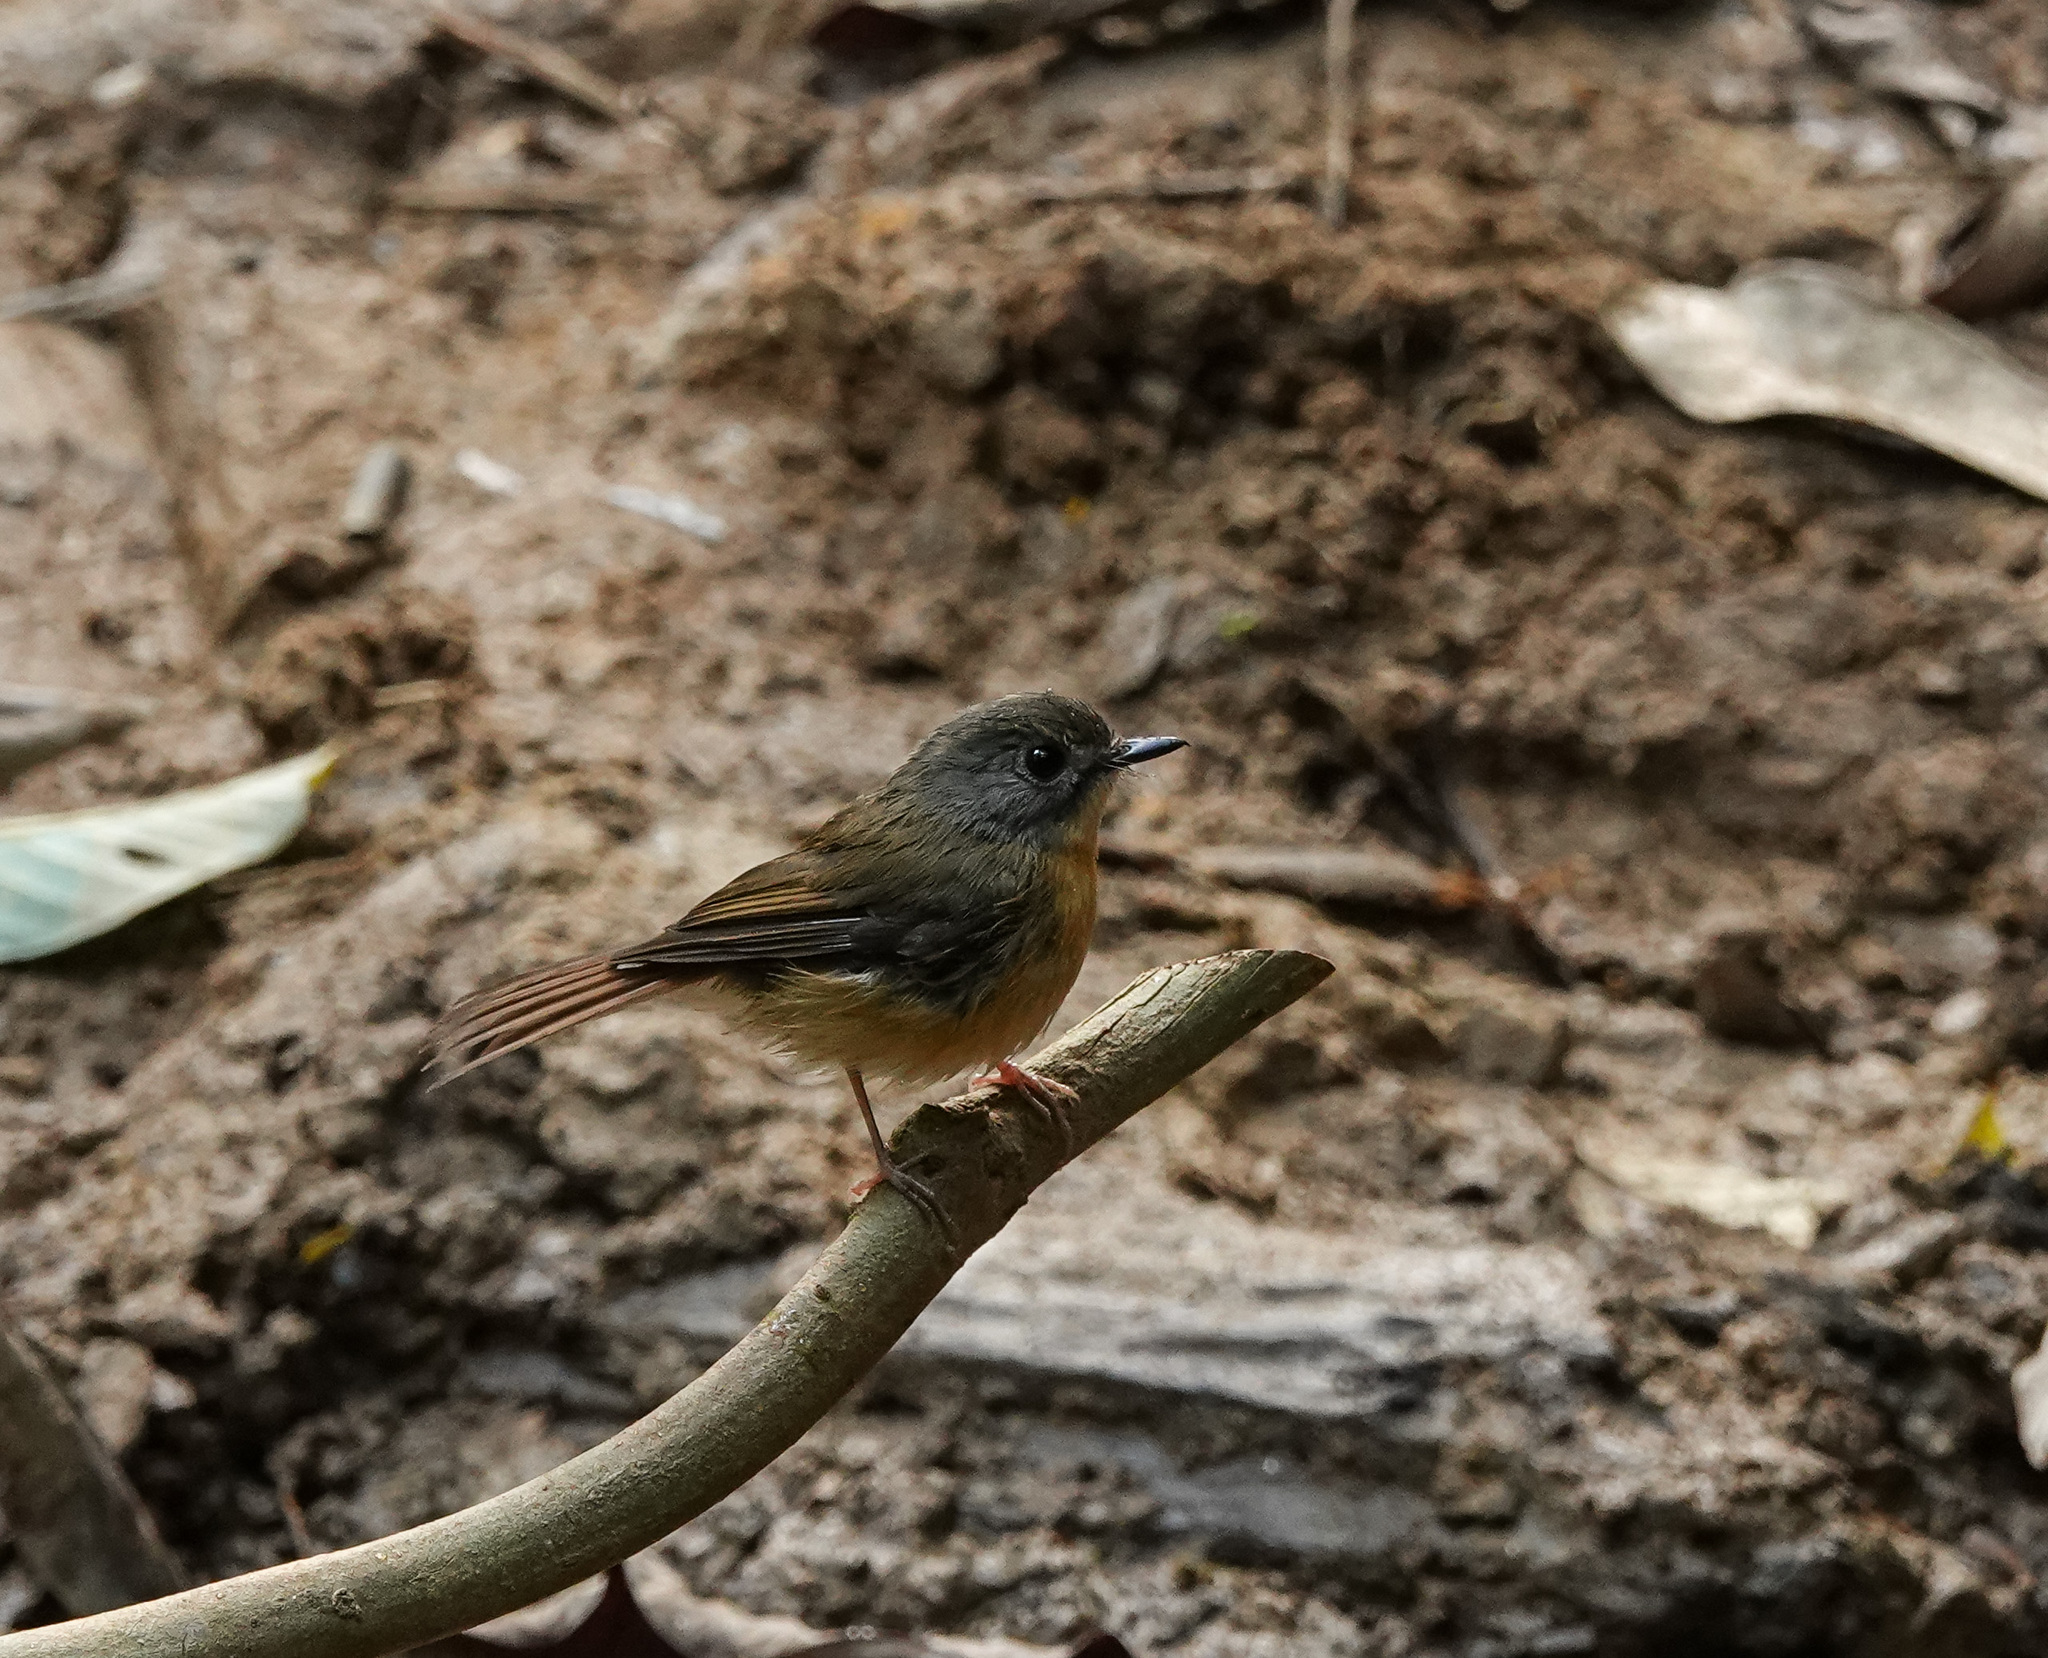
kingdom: Animalia
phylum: Chordata
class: Aves
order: Passeriformes
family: Muscicapidae
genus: Cyornis
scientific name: Cyornis poliogenys
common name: Pale-chinned blue flycatcher
